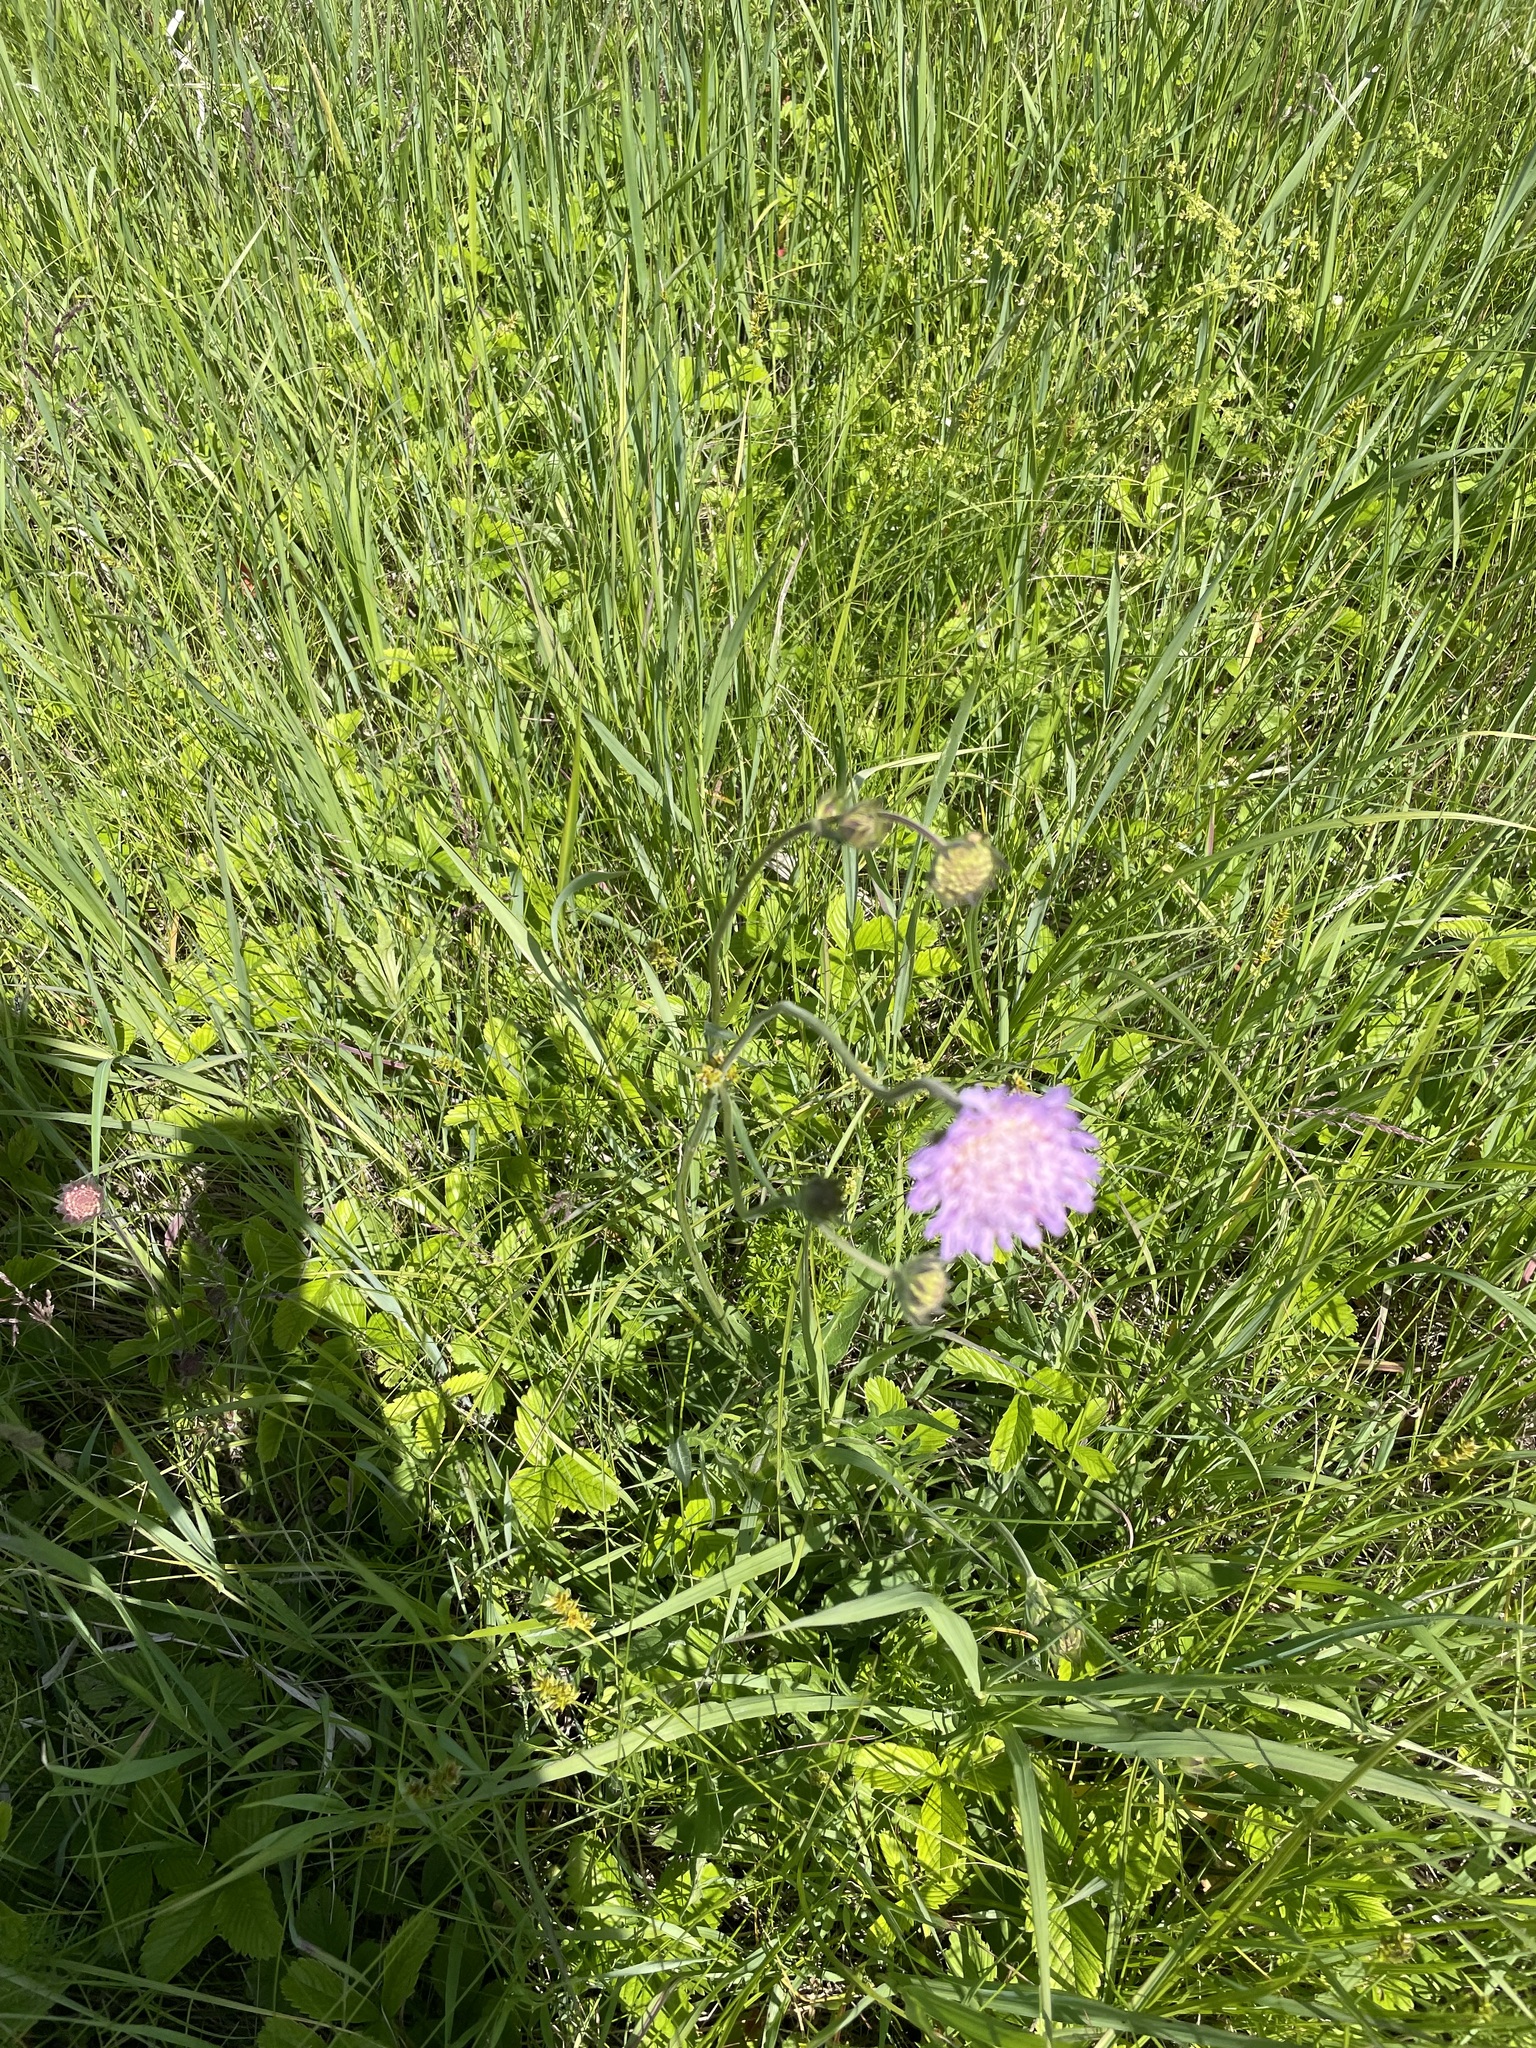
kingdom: Plantae
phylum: Tracheophyta
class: Magnoliopsida
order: Dipsacales
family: Caprifoliaceae
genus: Knautia
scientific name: Knautia arvensis
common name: Field scabiosa
